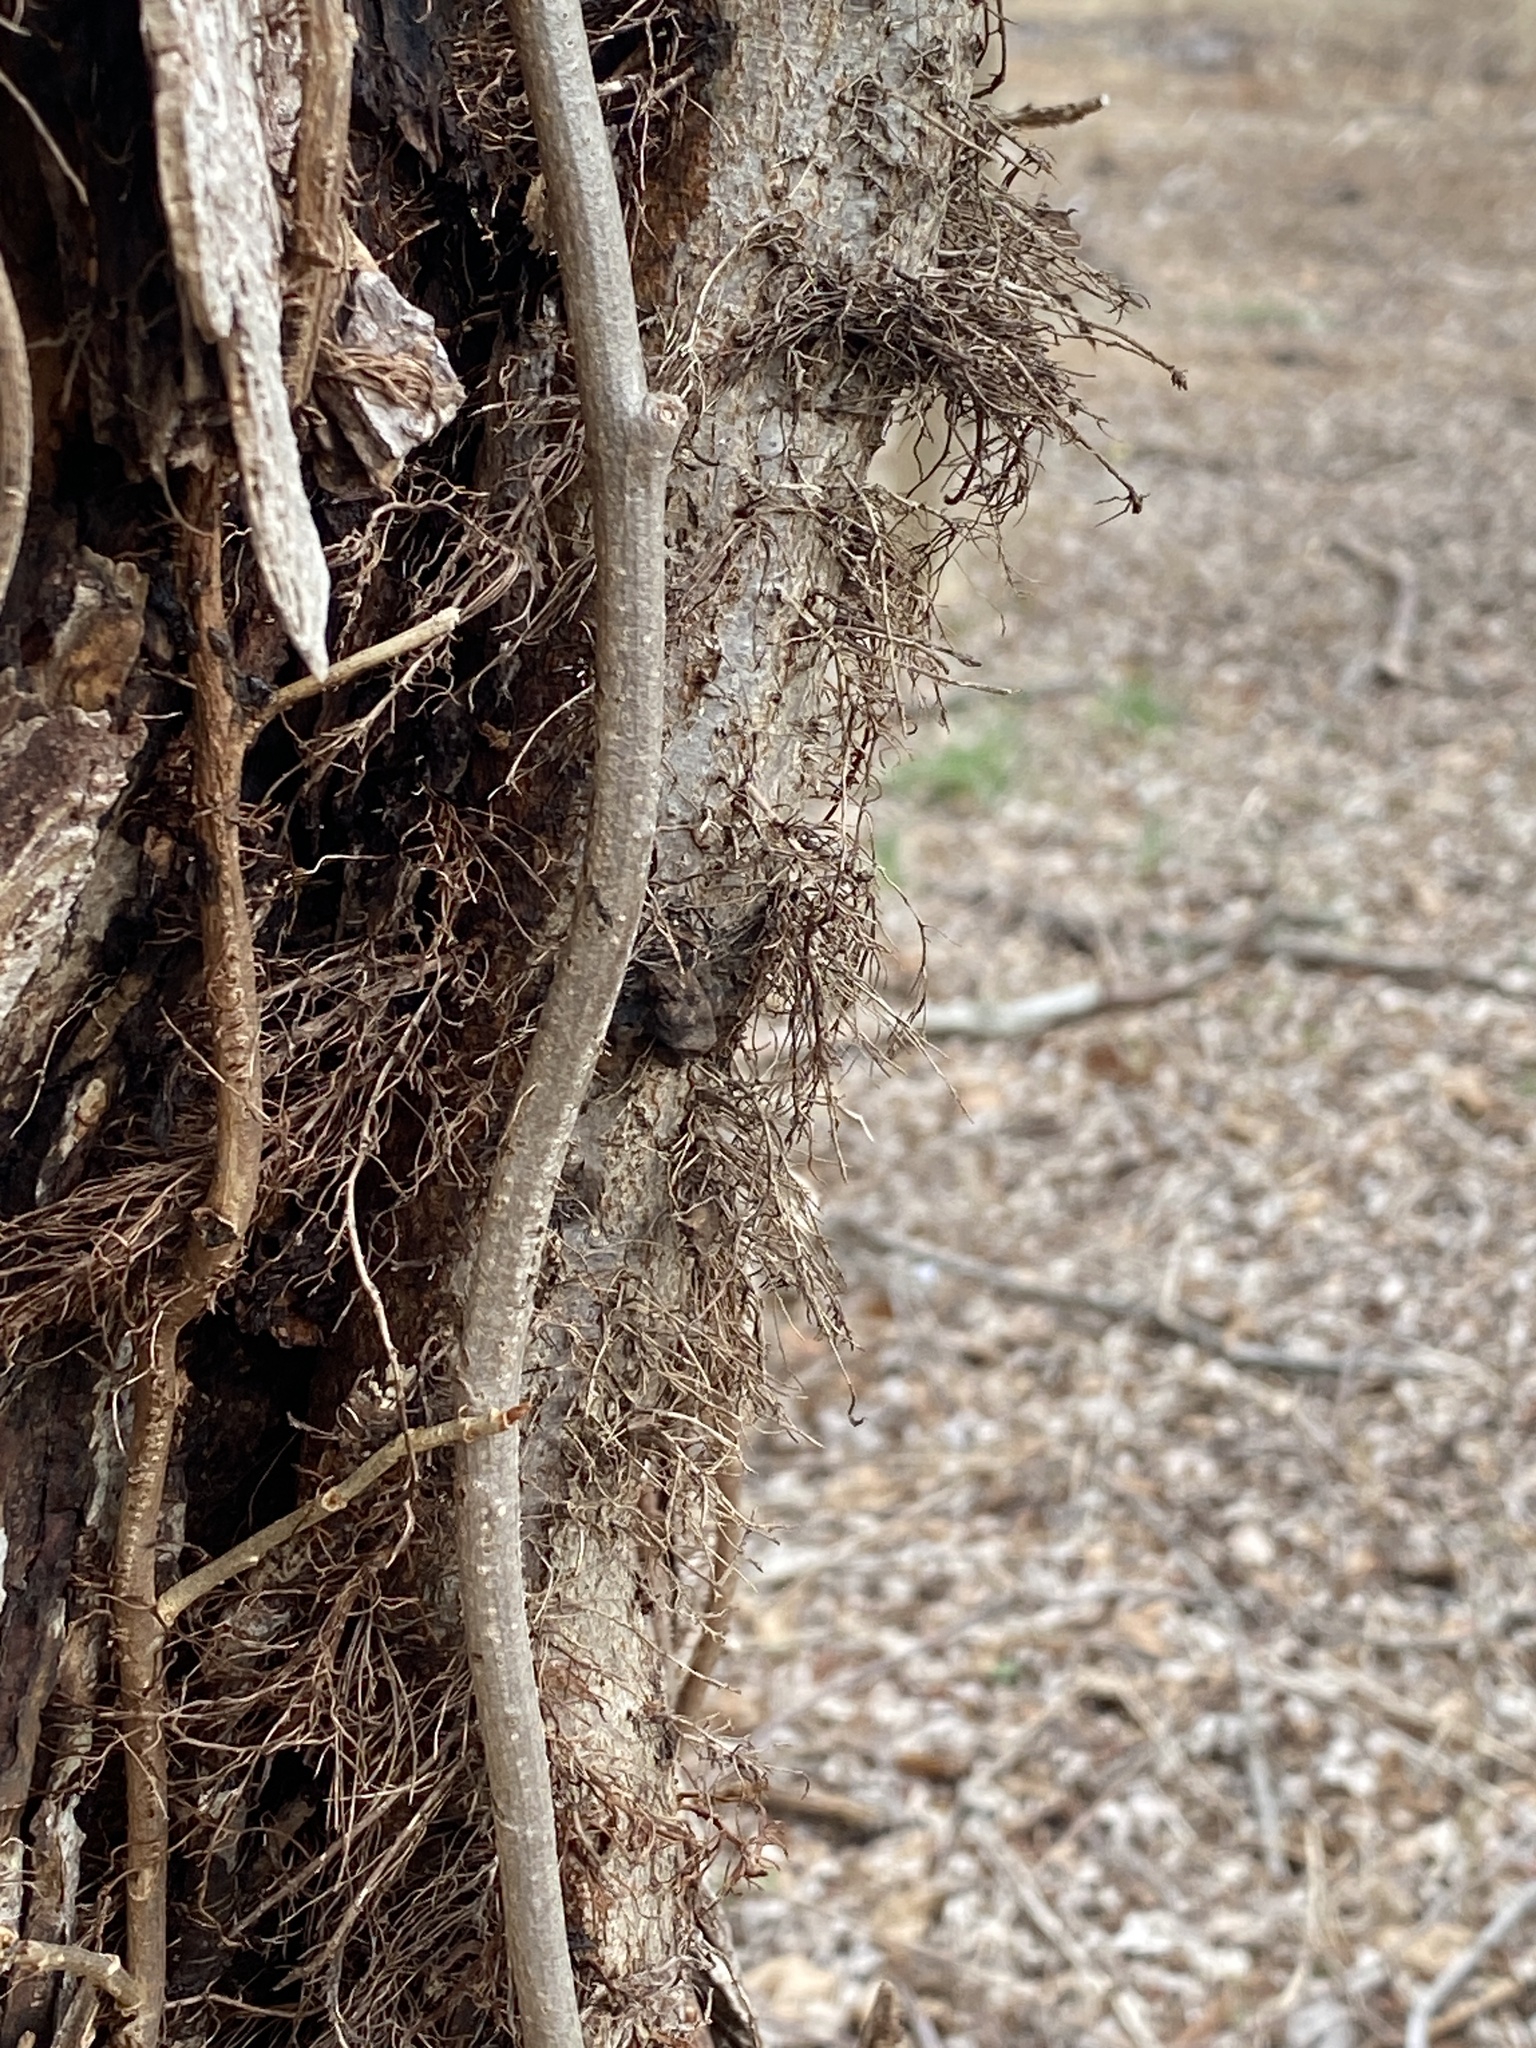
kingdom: Plantae
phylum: Tracheophyta
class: Magnoliopsida
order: Sapindales
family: Anacardiaceae
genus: Toxicodendron
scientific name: Toxicodendron radicans
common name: Poison ivy
